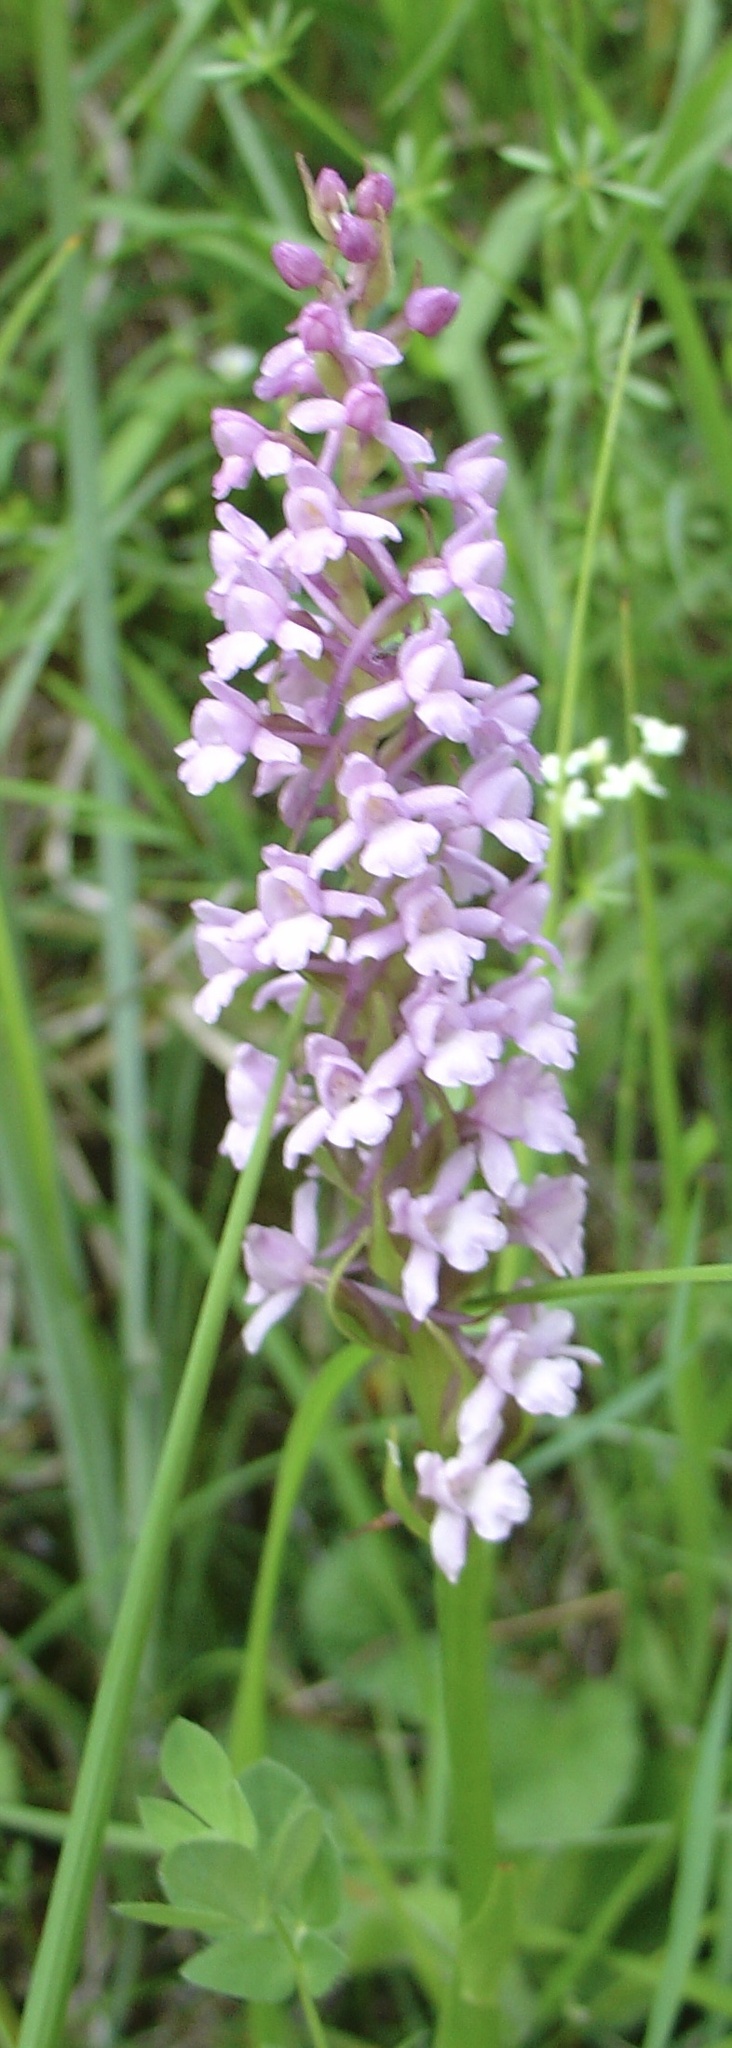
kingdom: Plantae
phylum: Tracheophyta
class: Liliopsida
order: Asparagales
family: Orchidaceae
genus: Gymnadenia
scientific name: Gymnadenia conopsea
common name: Fragrant orchid
